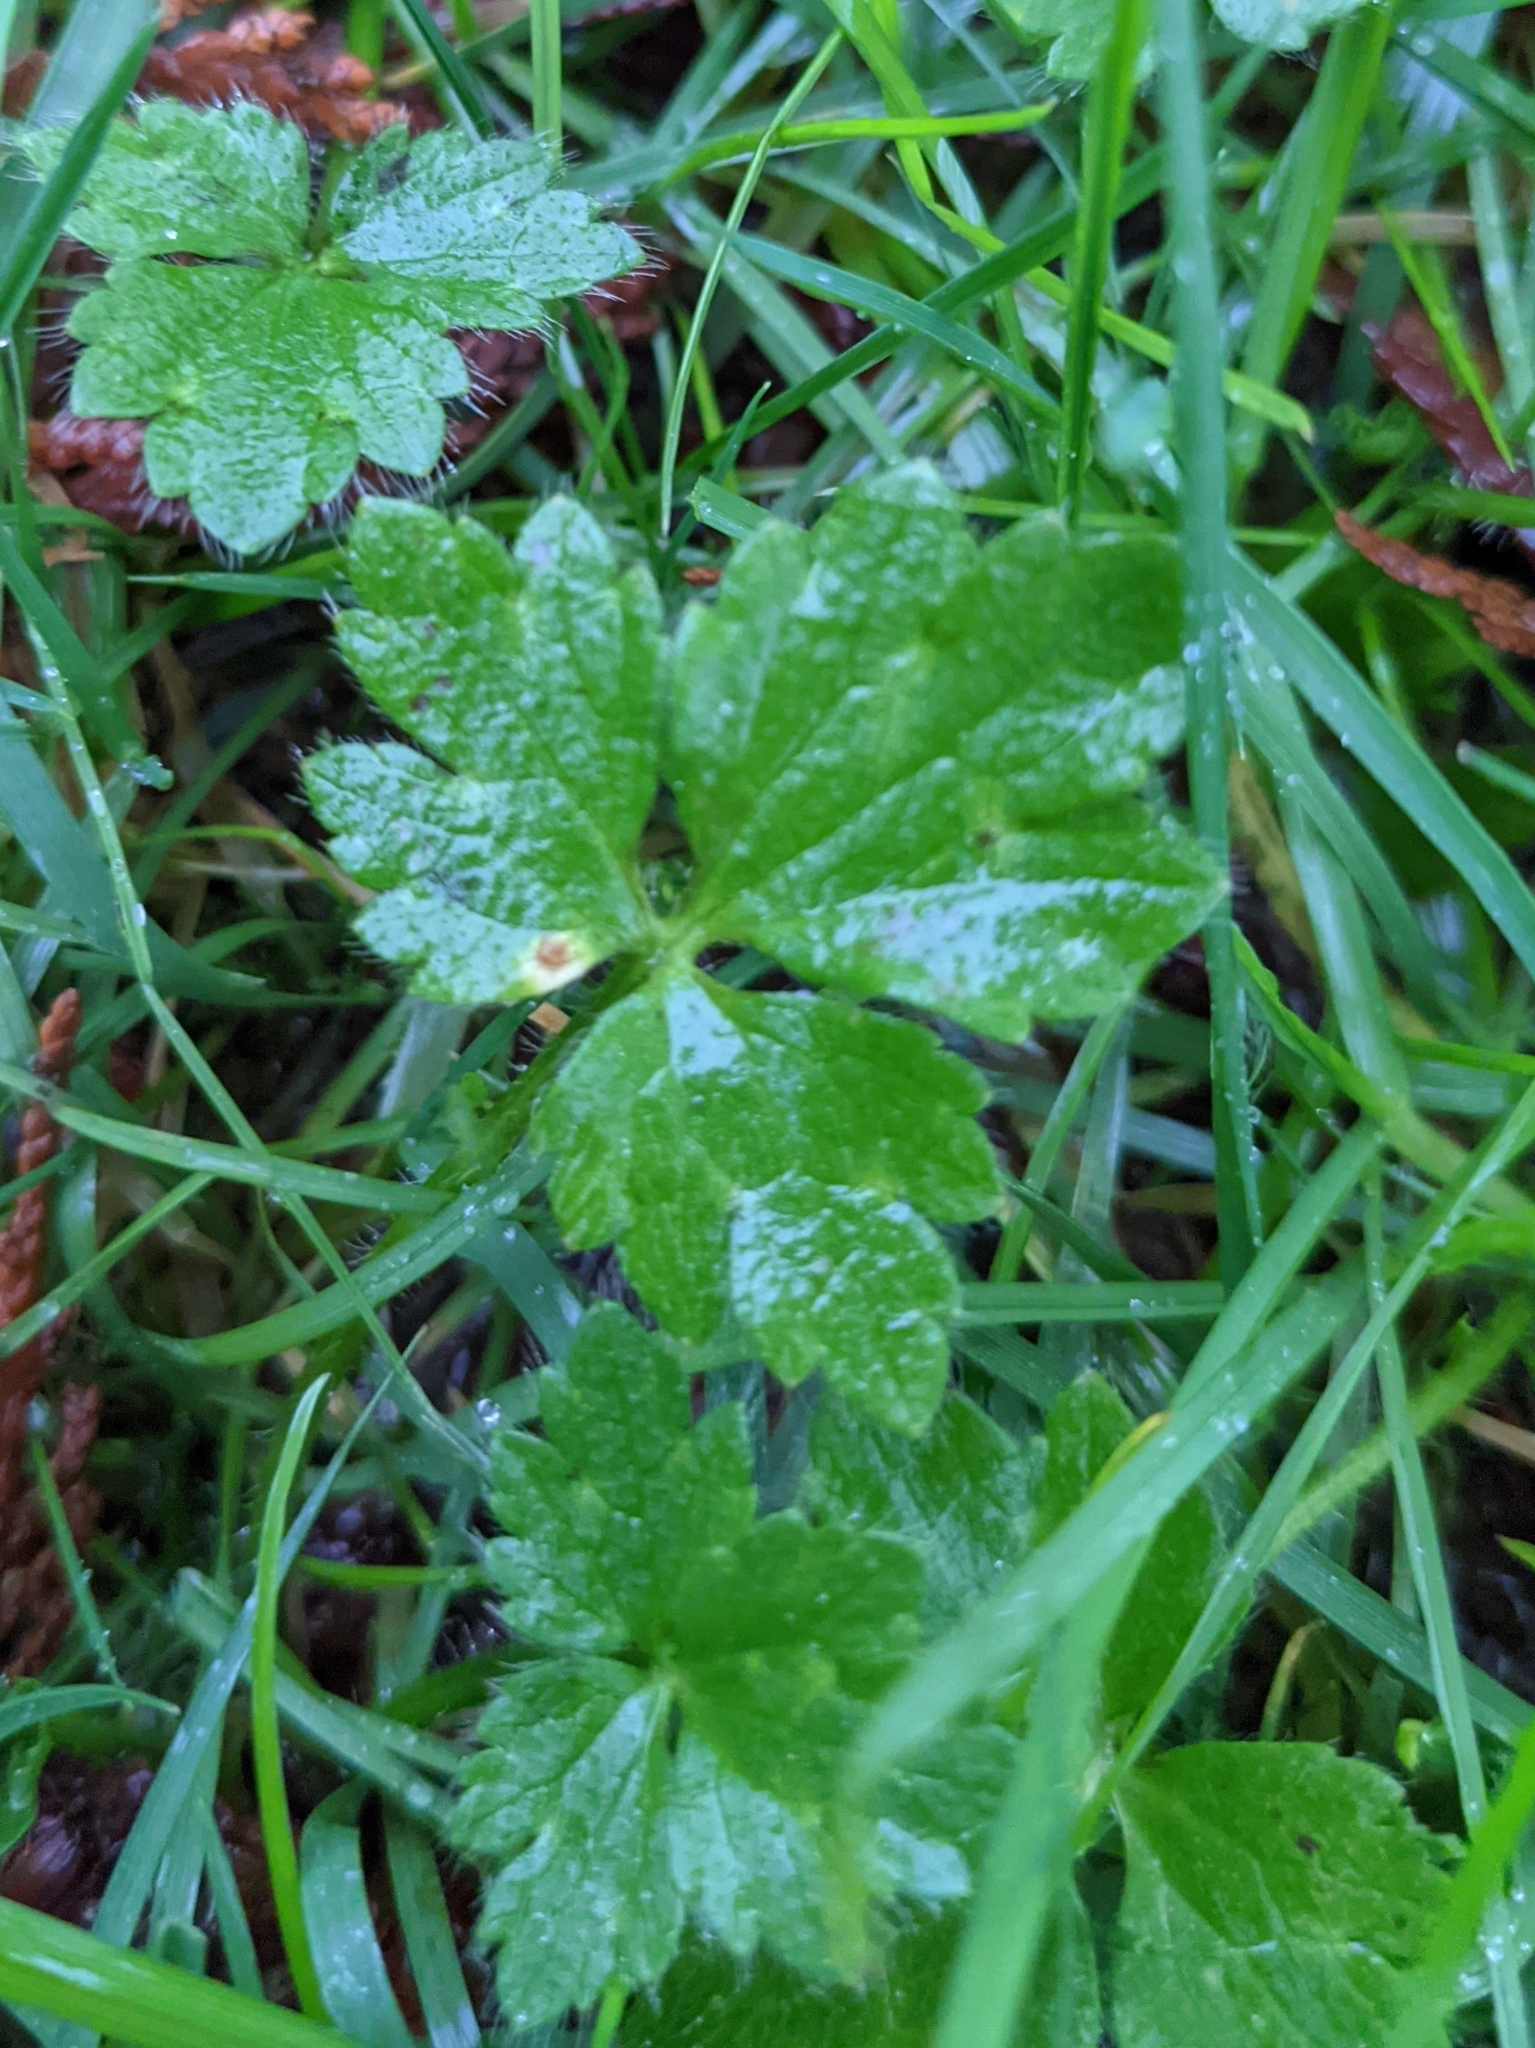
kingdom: Plantae
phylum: Tracheophyta
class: Magnoliopsida
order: Ranunculales
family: Ranunculaceae
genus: Ranunculus
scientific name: Ranunculus repens
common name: Creeping buttercup
